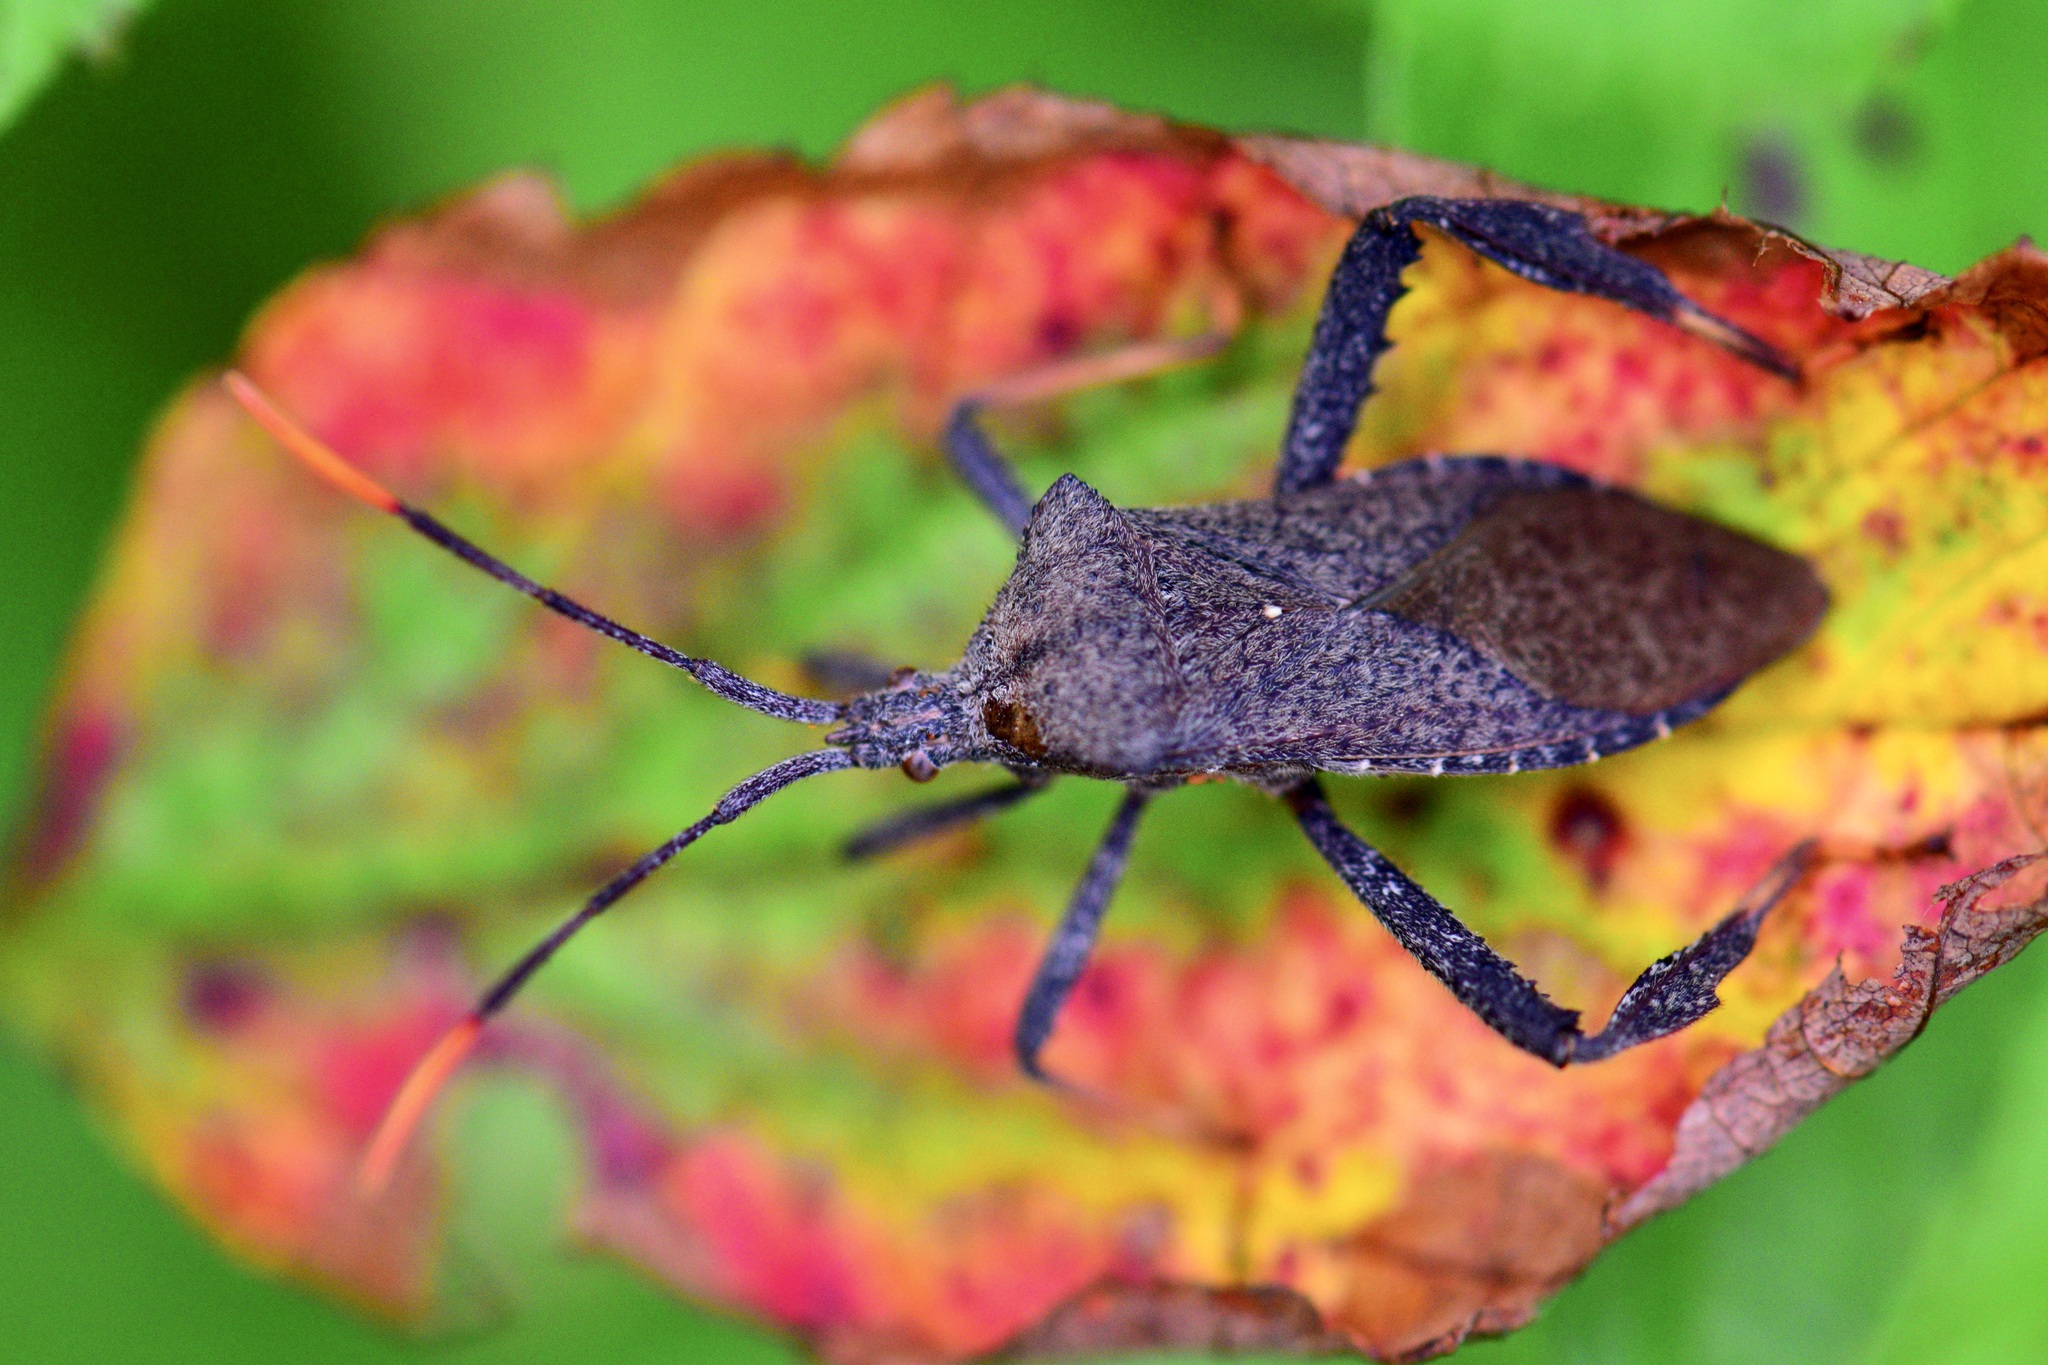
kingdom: Animalia
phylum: Arthropoda
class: Insecta
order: Hemiptera
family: Coreidae
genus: Acanthocephala
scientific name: Acanthocephala terminalis
